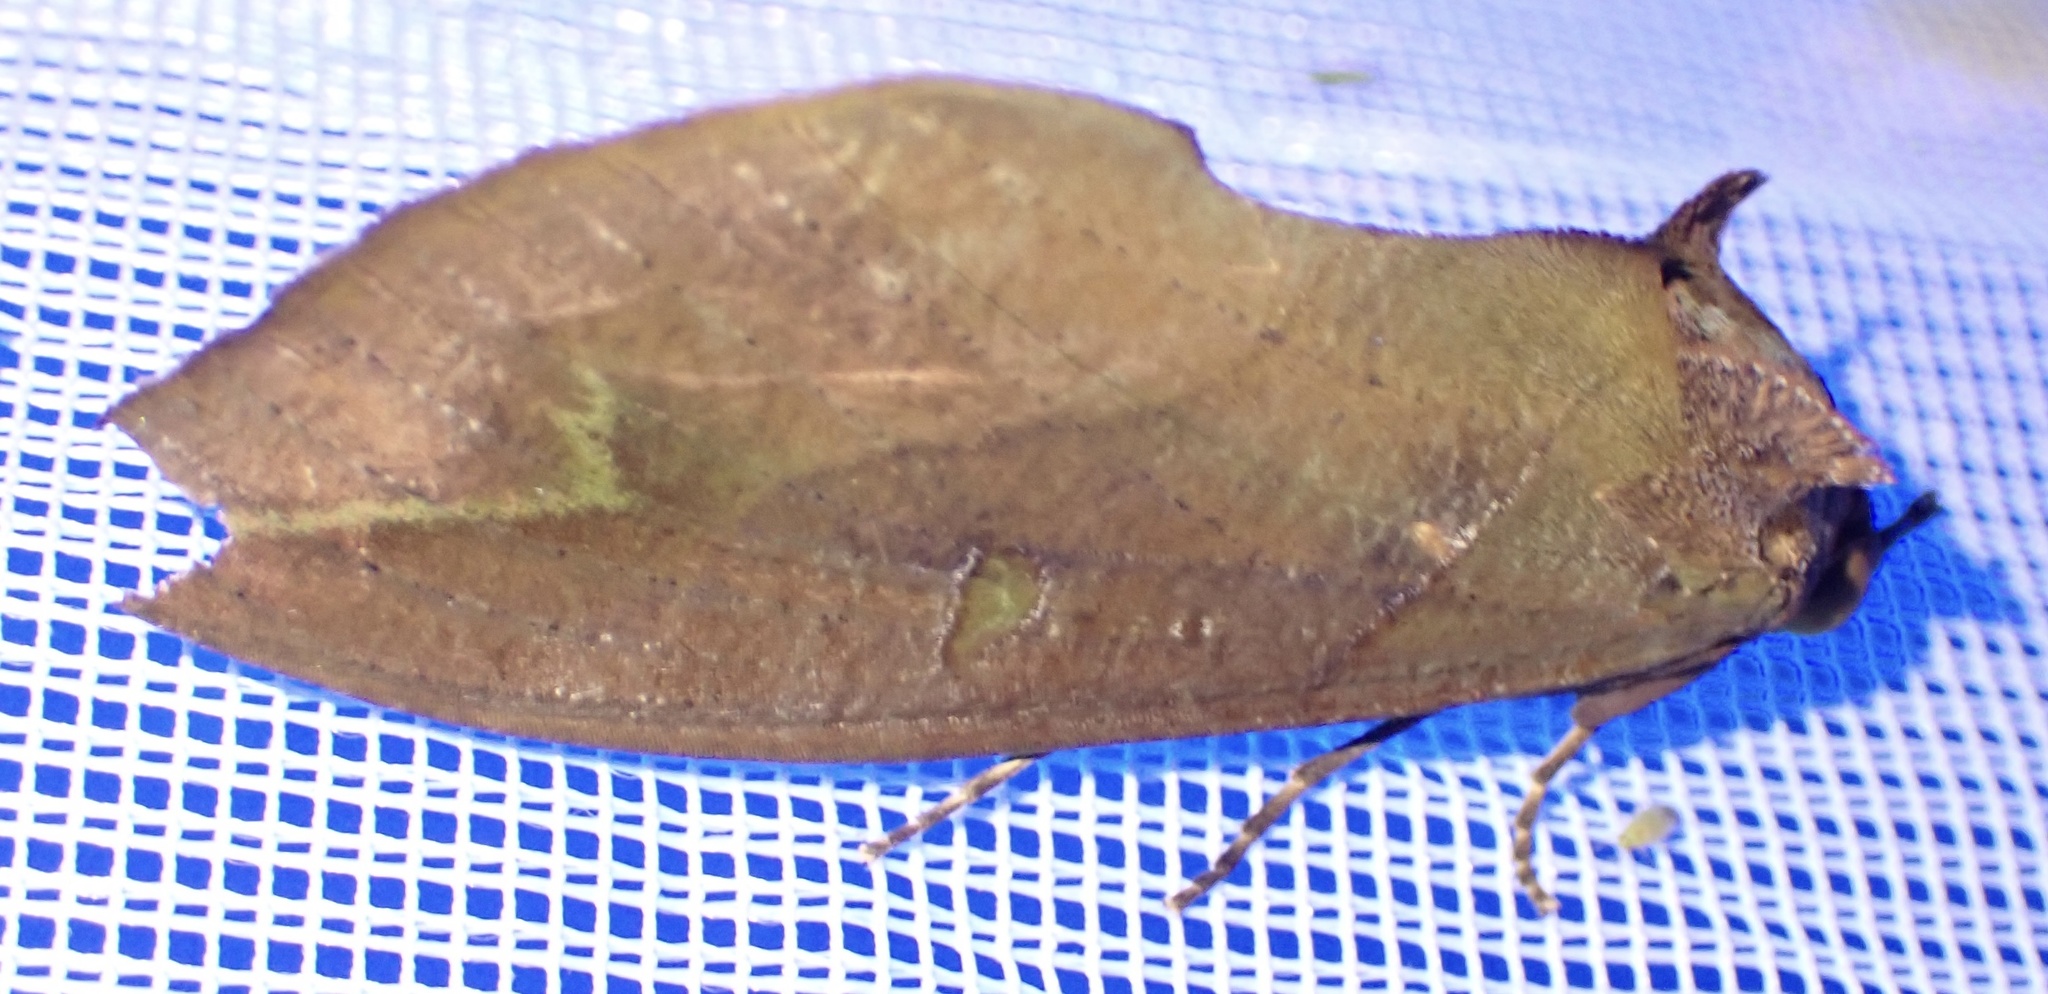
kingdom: Animalia
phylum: Arthropoda
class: Insecta
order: Lepidoptera
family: Erebidae
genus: Eudocima
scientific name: Eudocima afrikana
